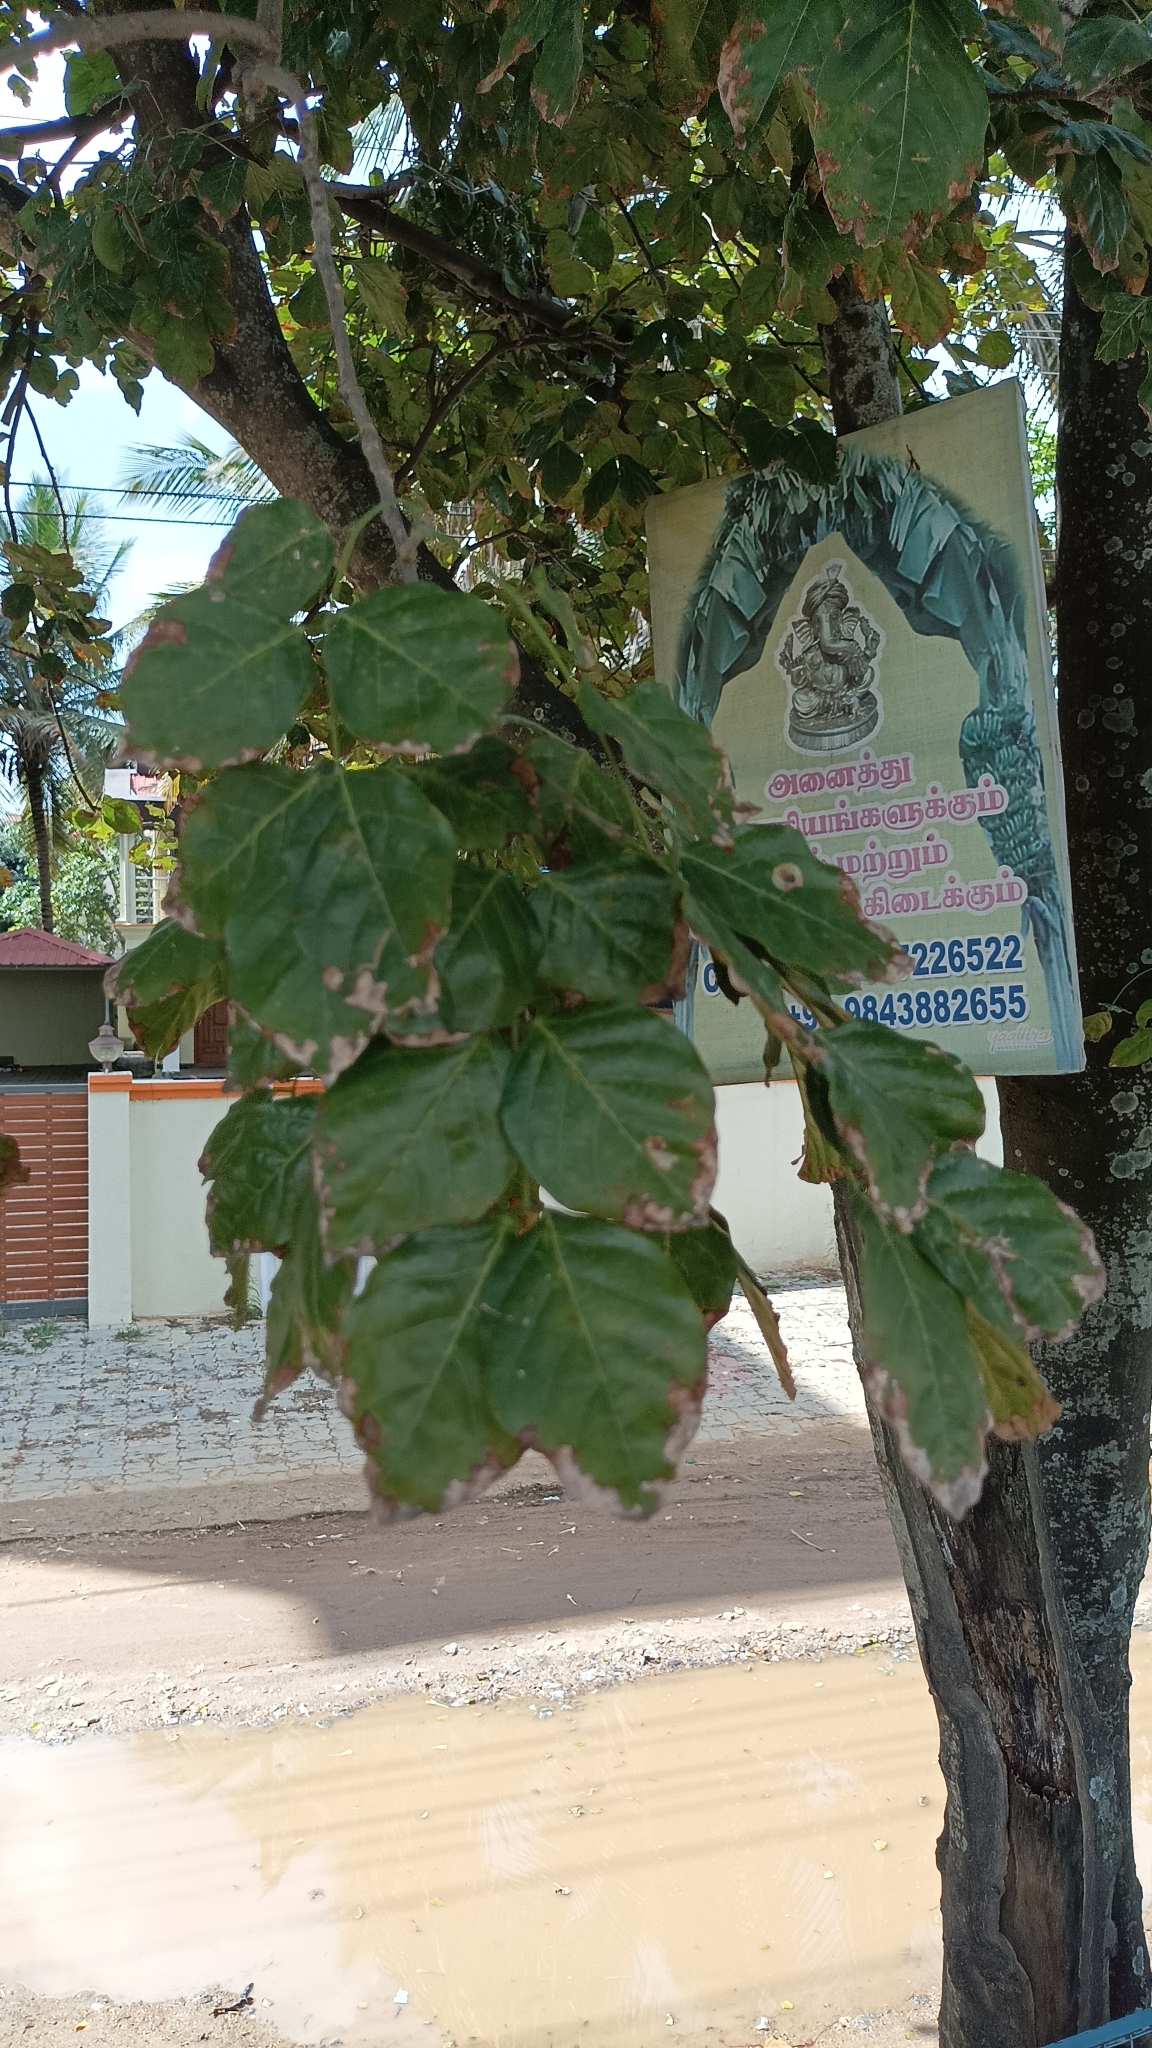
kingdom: Plantae
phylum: Tracheophyta
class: Magnoliopsida
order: Fabales
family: Fabaceae
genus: Pongamia
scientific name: Pongamia pinnata
